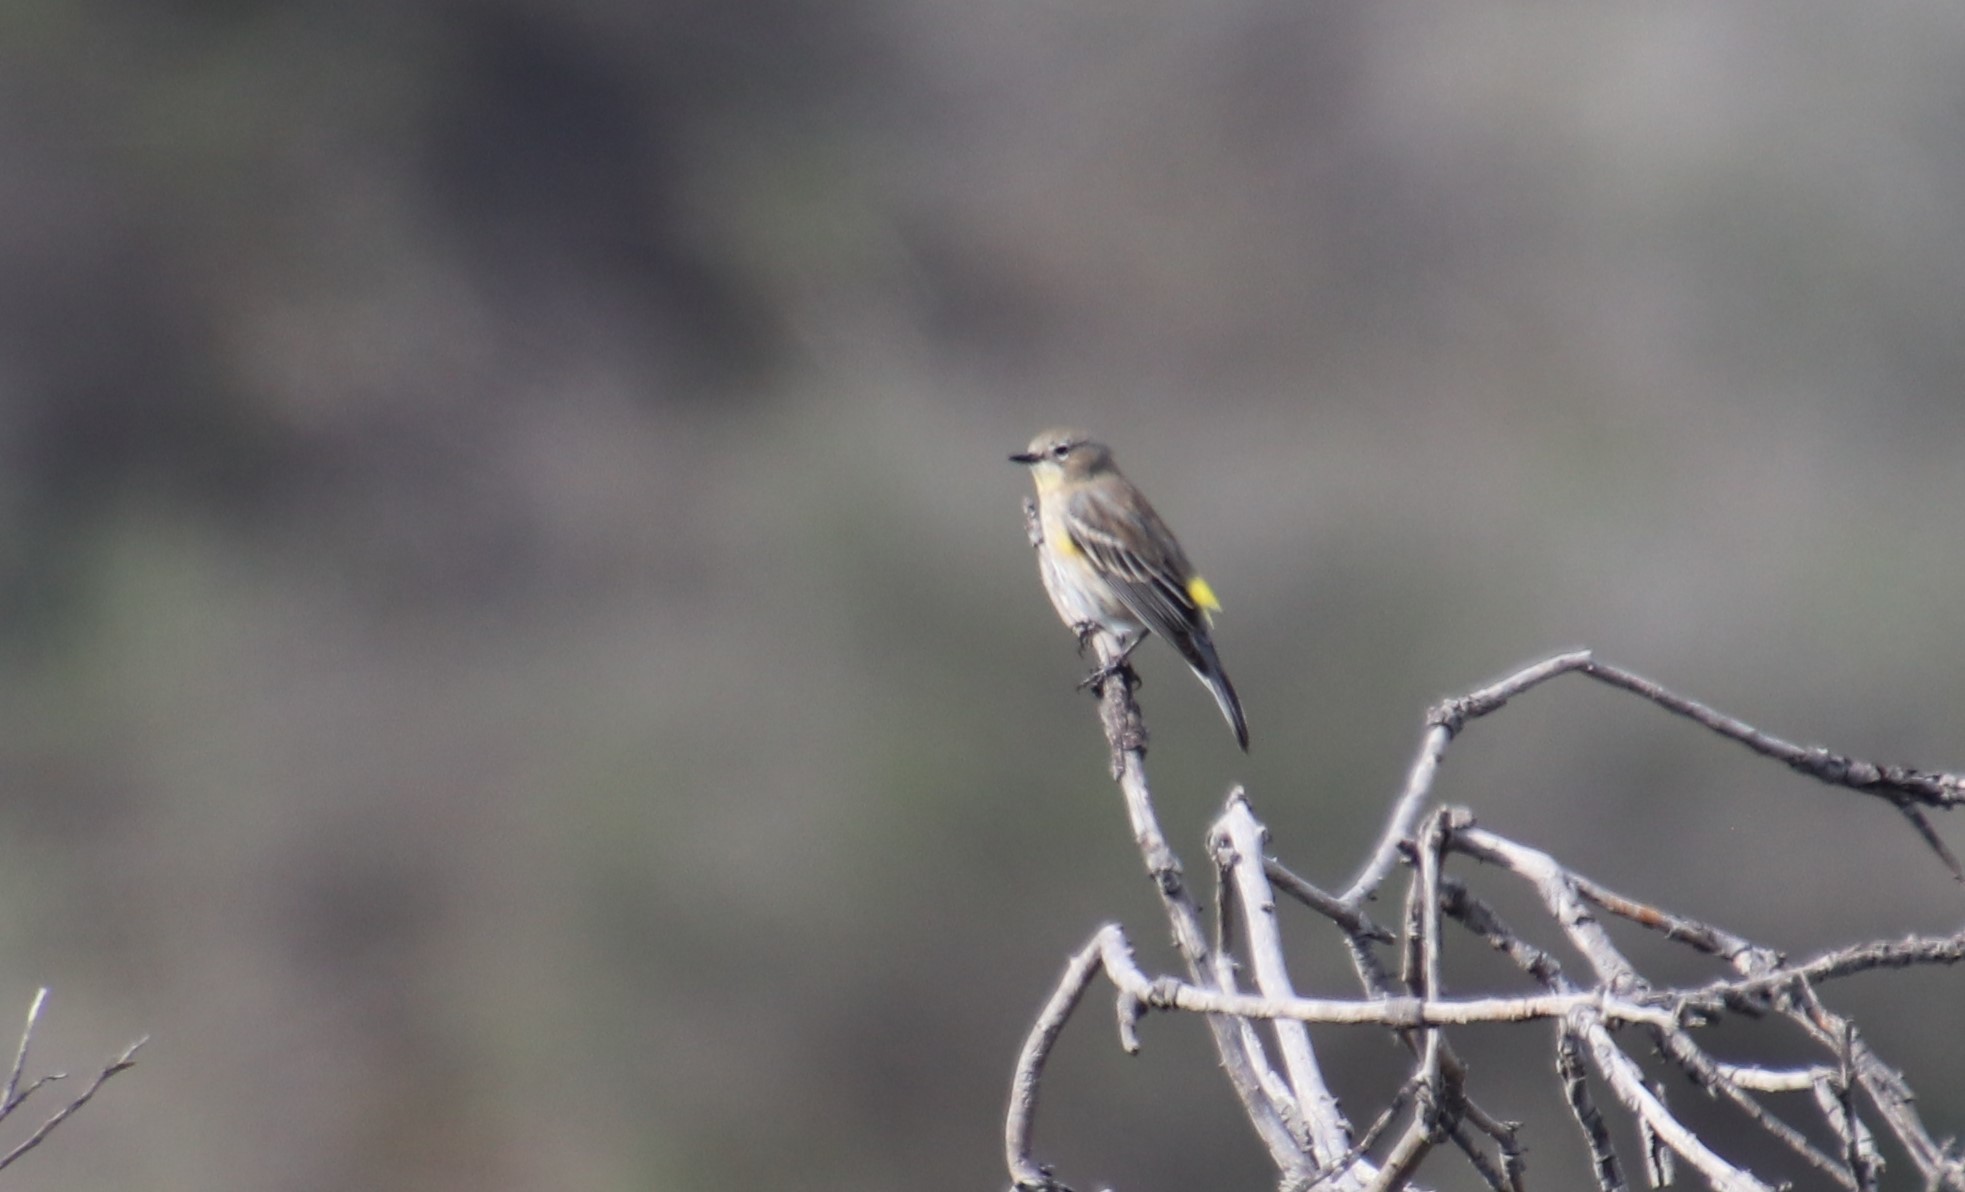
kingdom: Animalia
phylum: Chordata
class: Aves
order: Passeriformes
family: Parulidae
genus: Setophaga
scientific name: Setophaga auduboni
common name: Audubon's warbler
